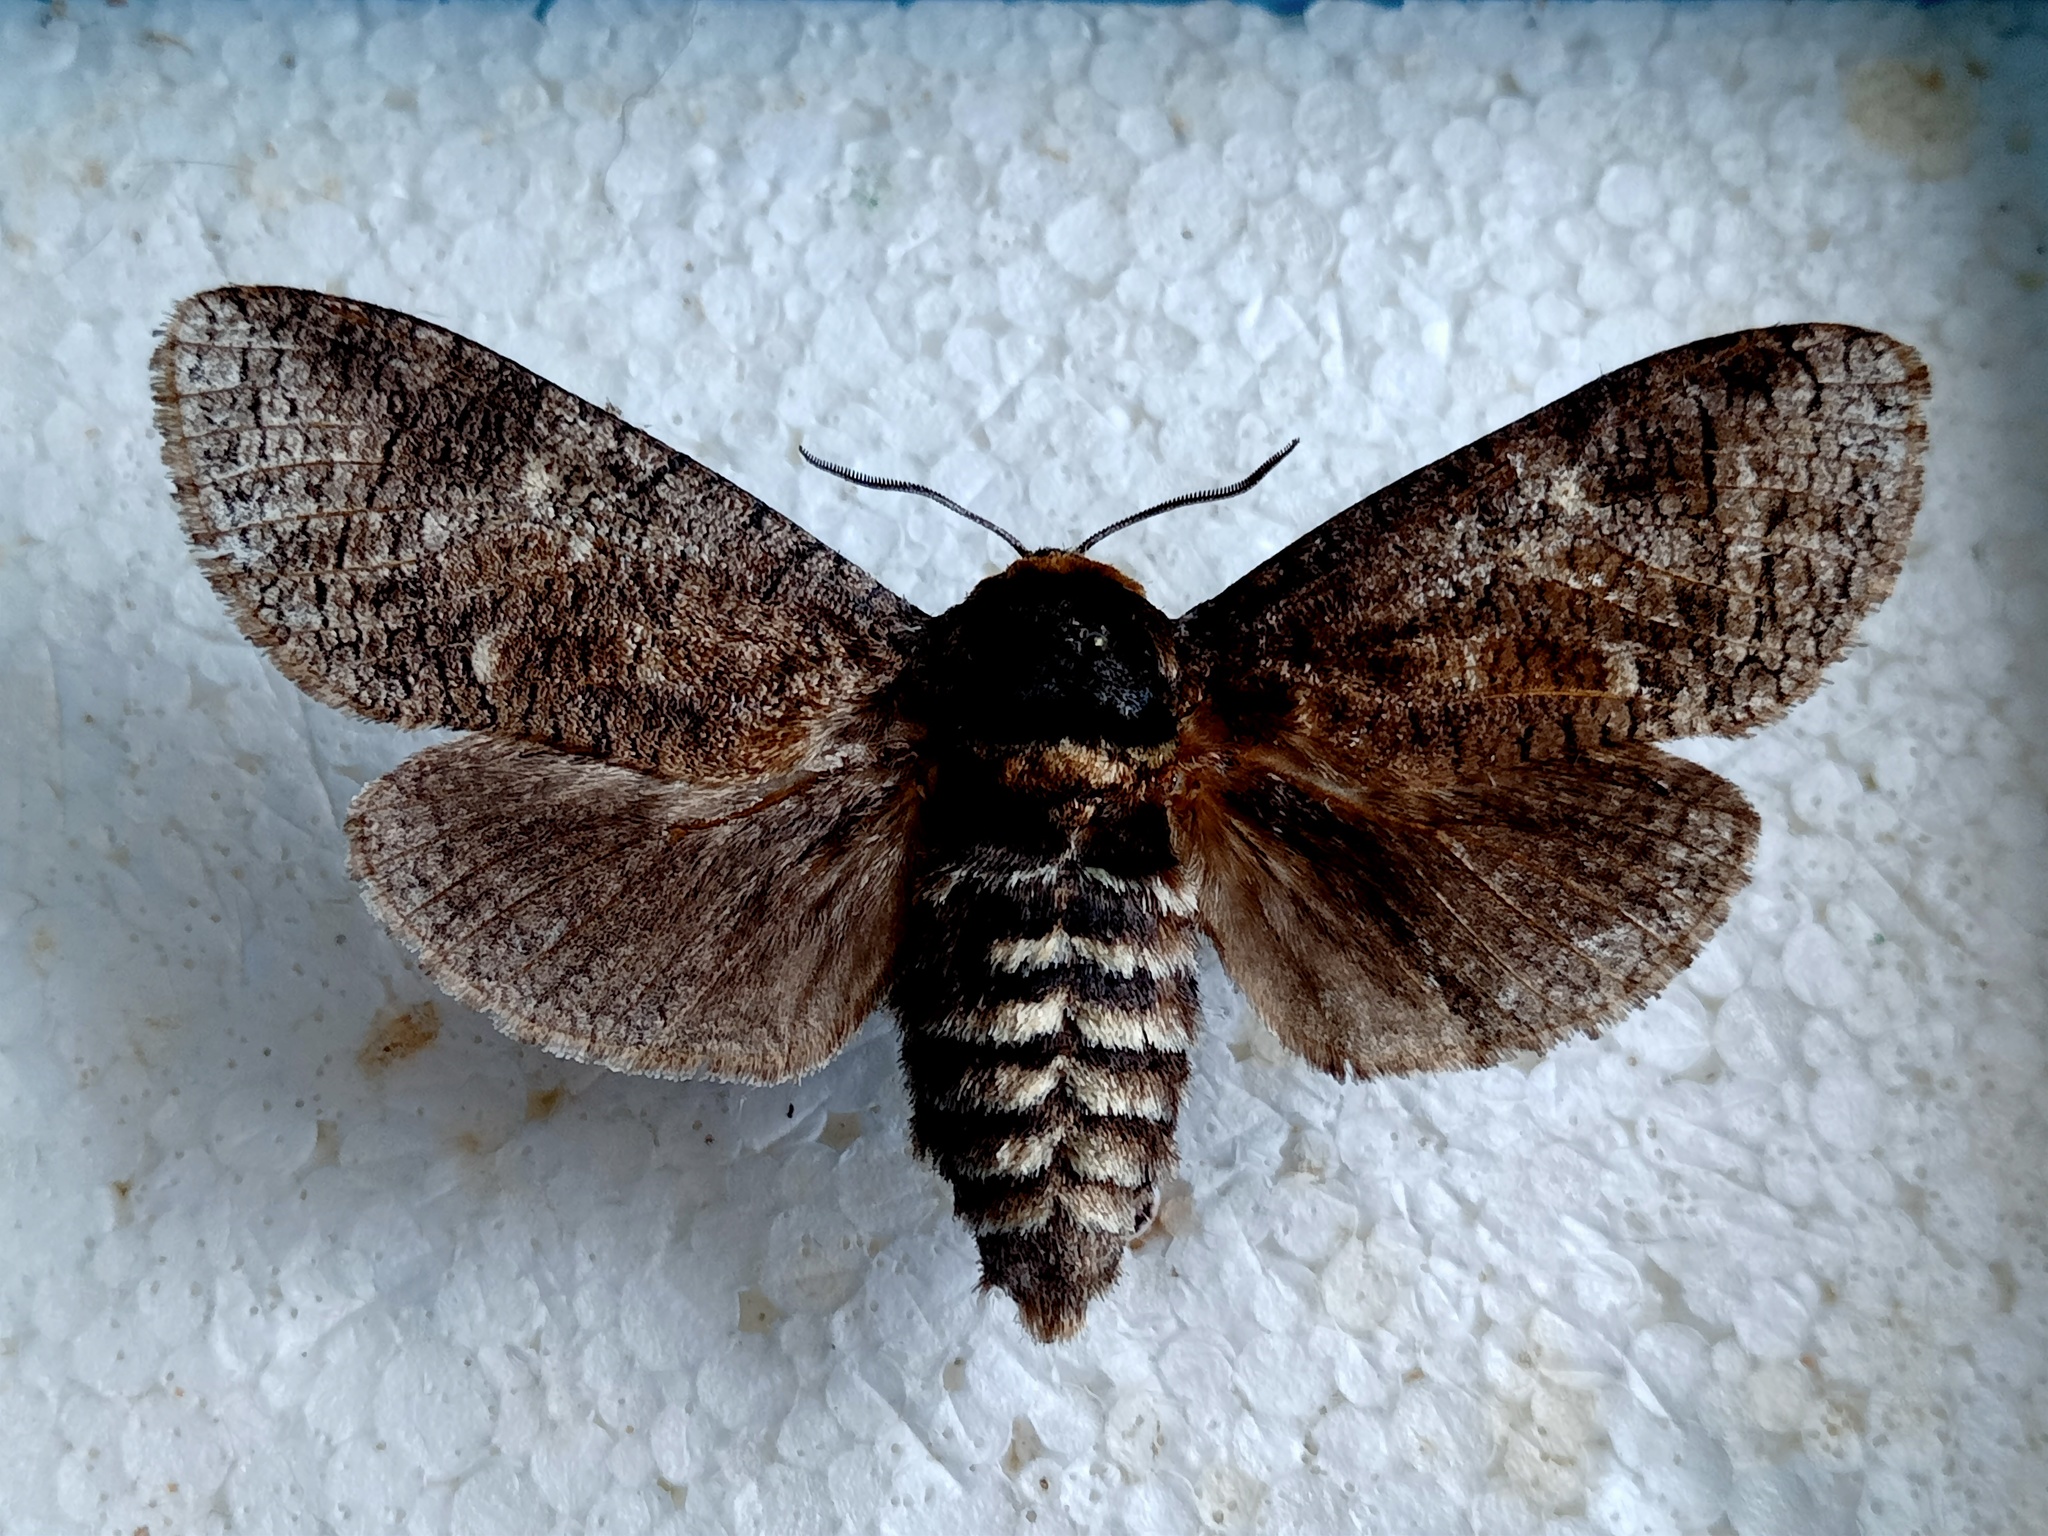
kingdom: Animalia
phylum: Arthropoda
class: Insecta
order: Lepidoptera
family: Cossidae
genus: Cossus
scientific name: Cossus cossus
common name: Goat moth
